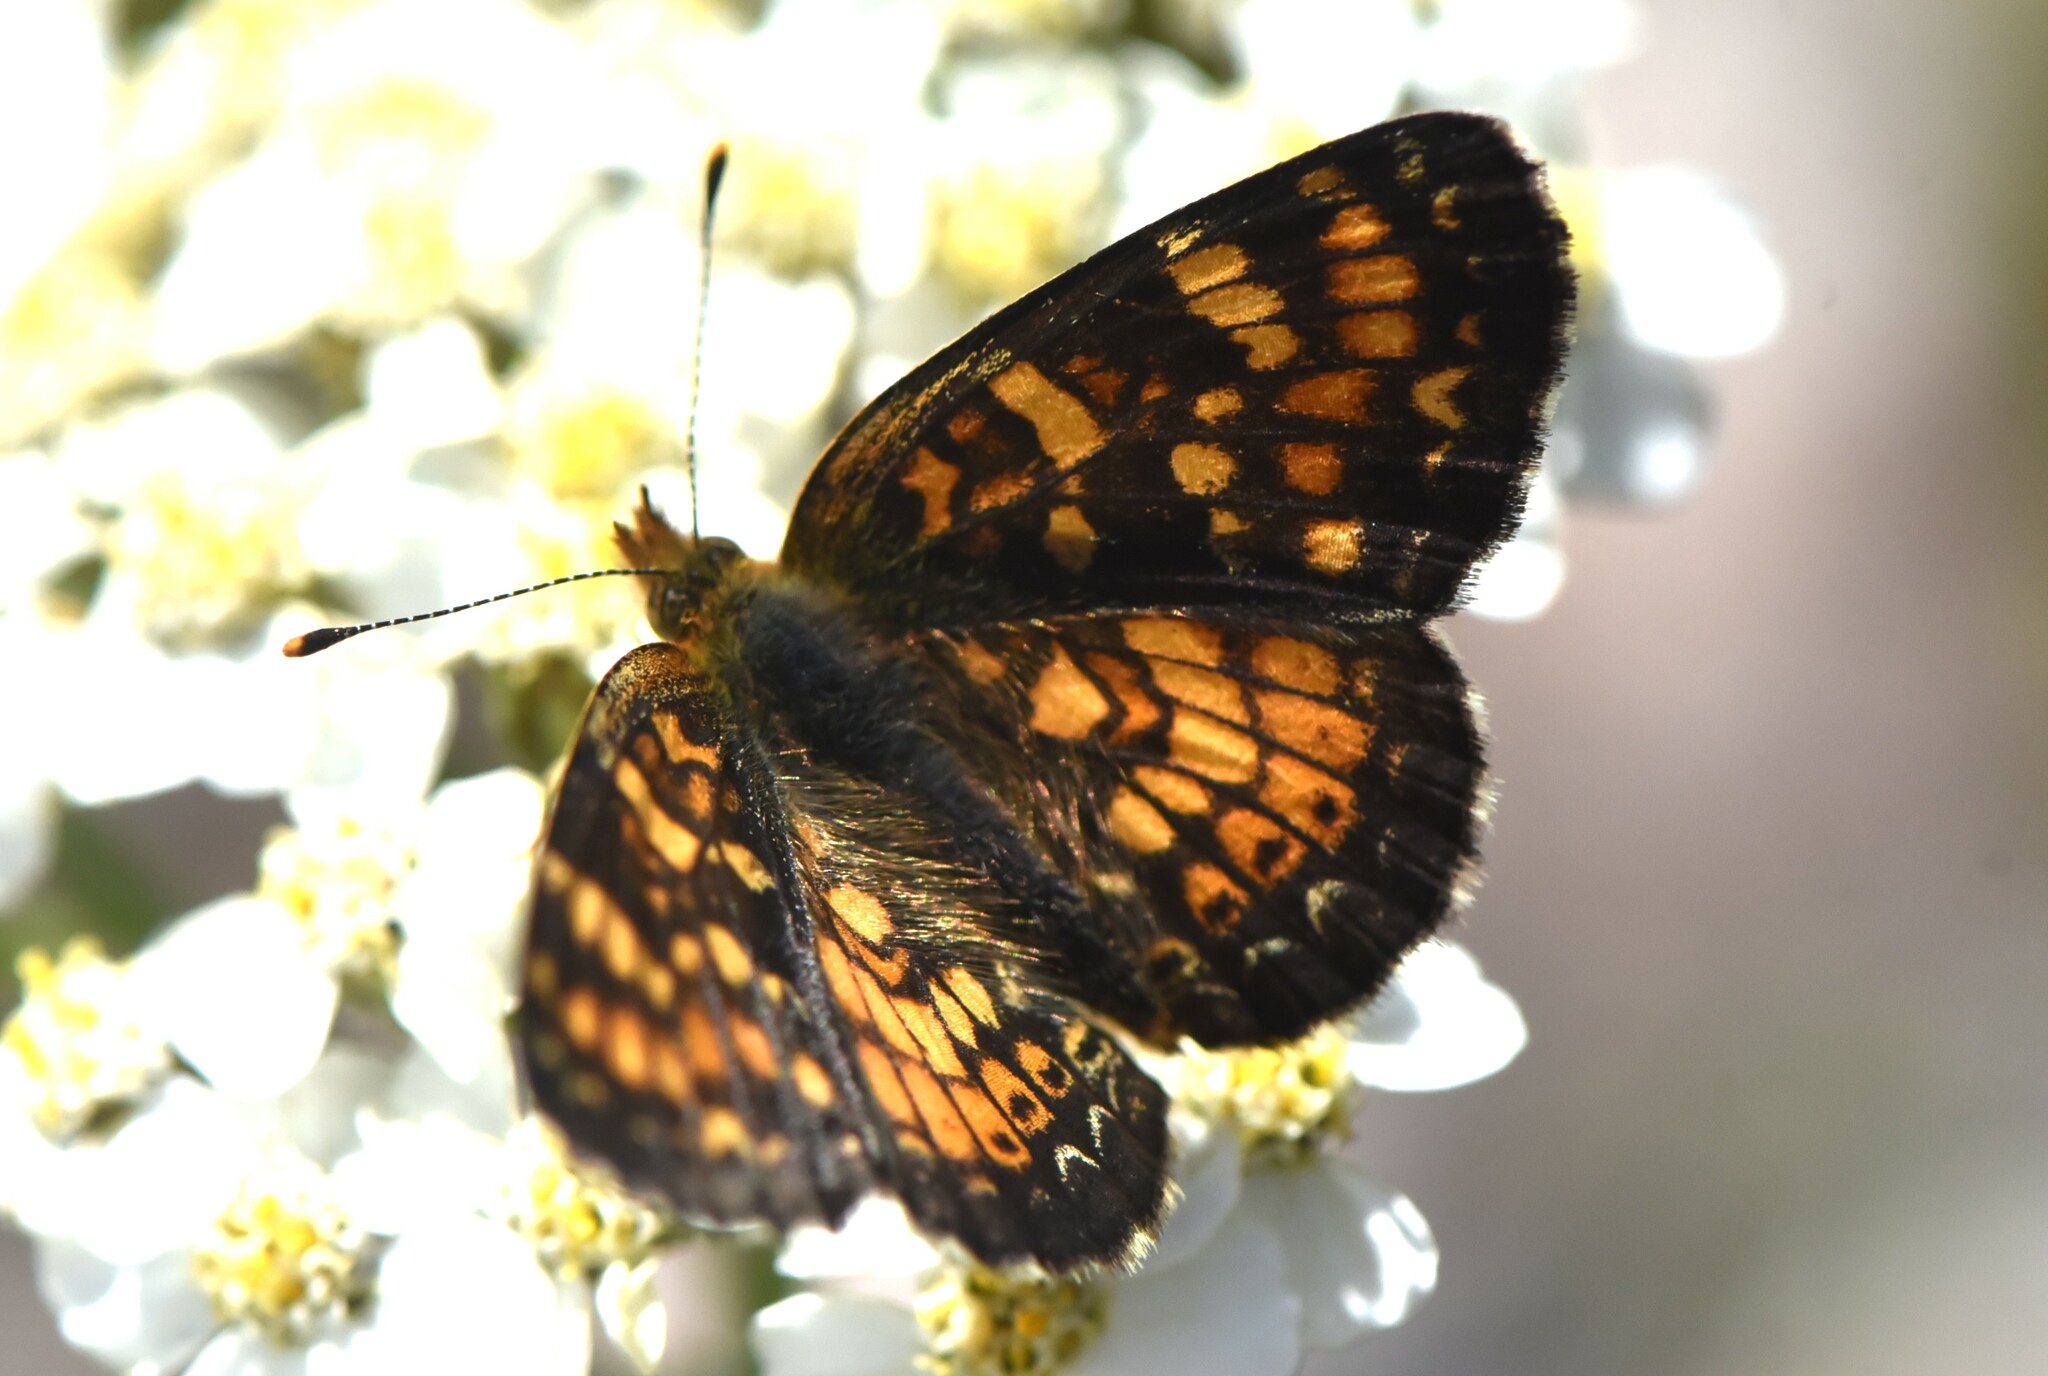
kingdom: Animalia
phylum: Arthropoda
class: Insecta
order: Lepidoptera
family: Nymphalidae
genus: Phyciodes
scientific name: Phyciodes tharos
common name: Pearl crescent
